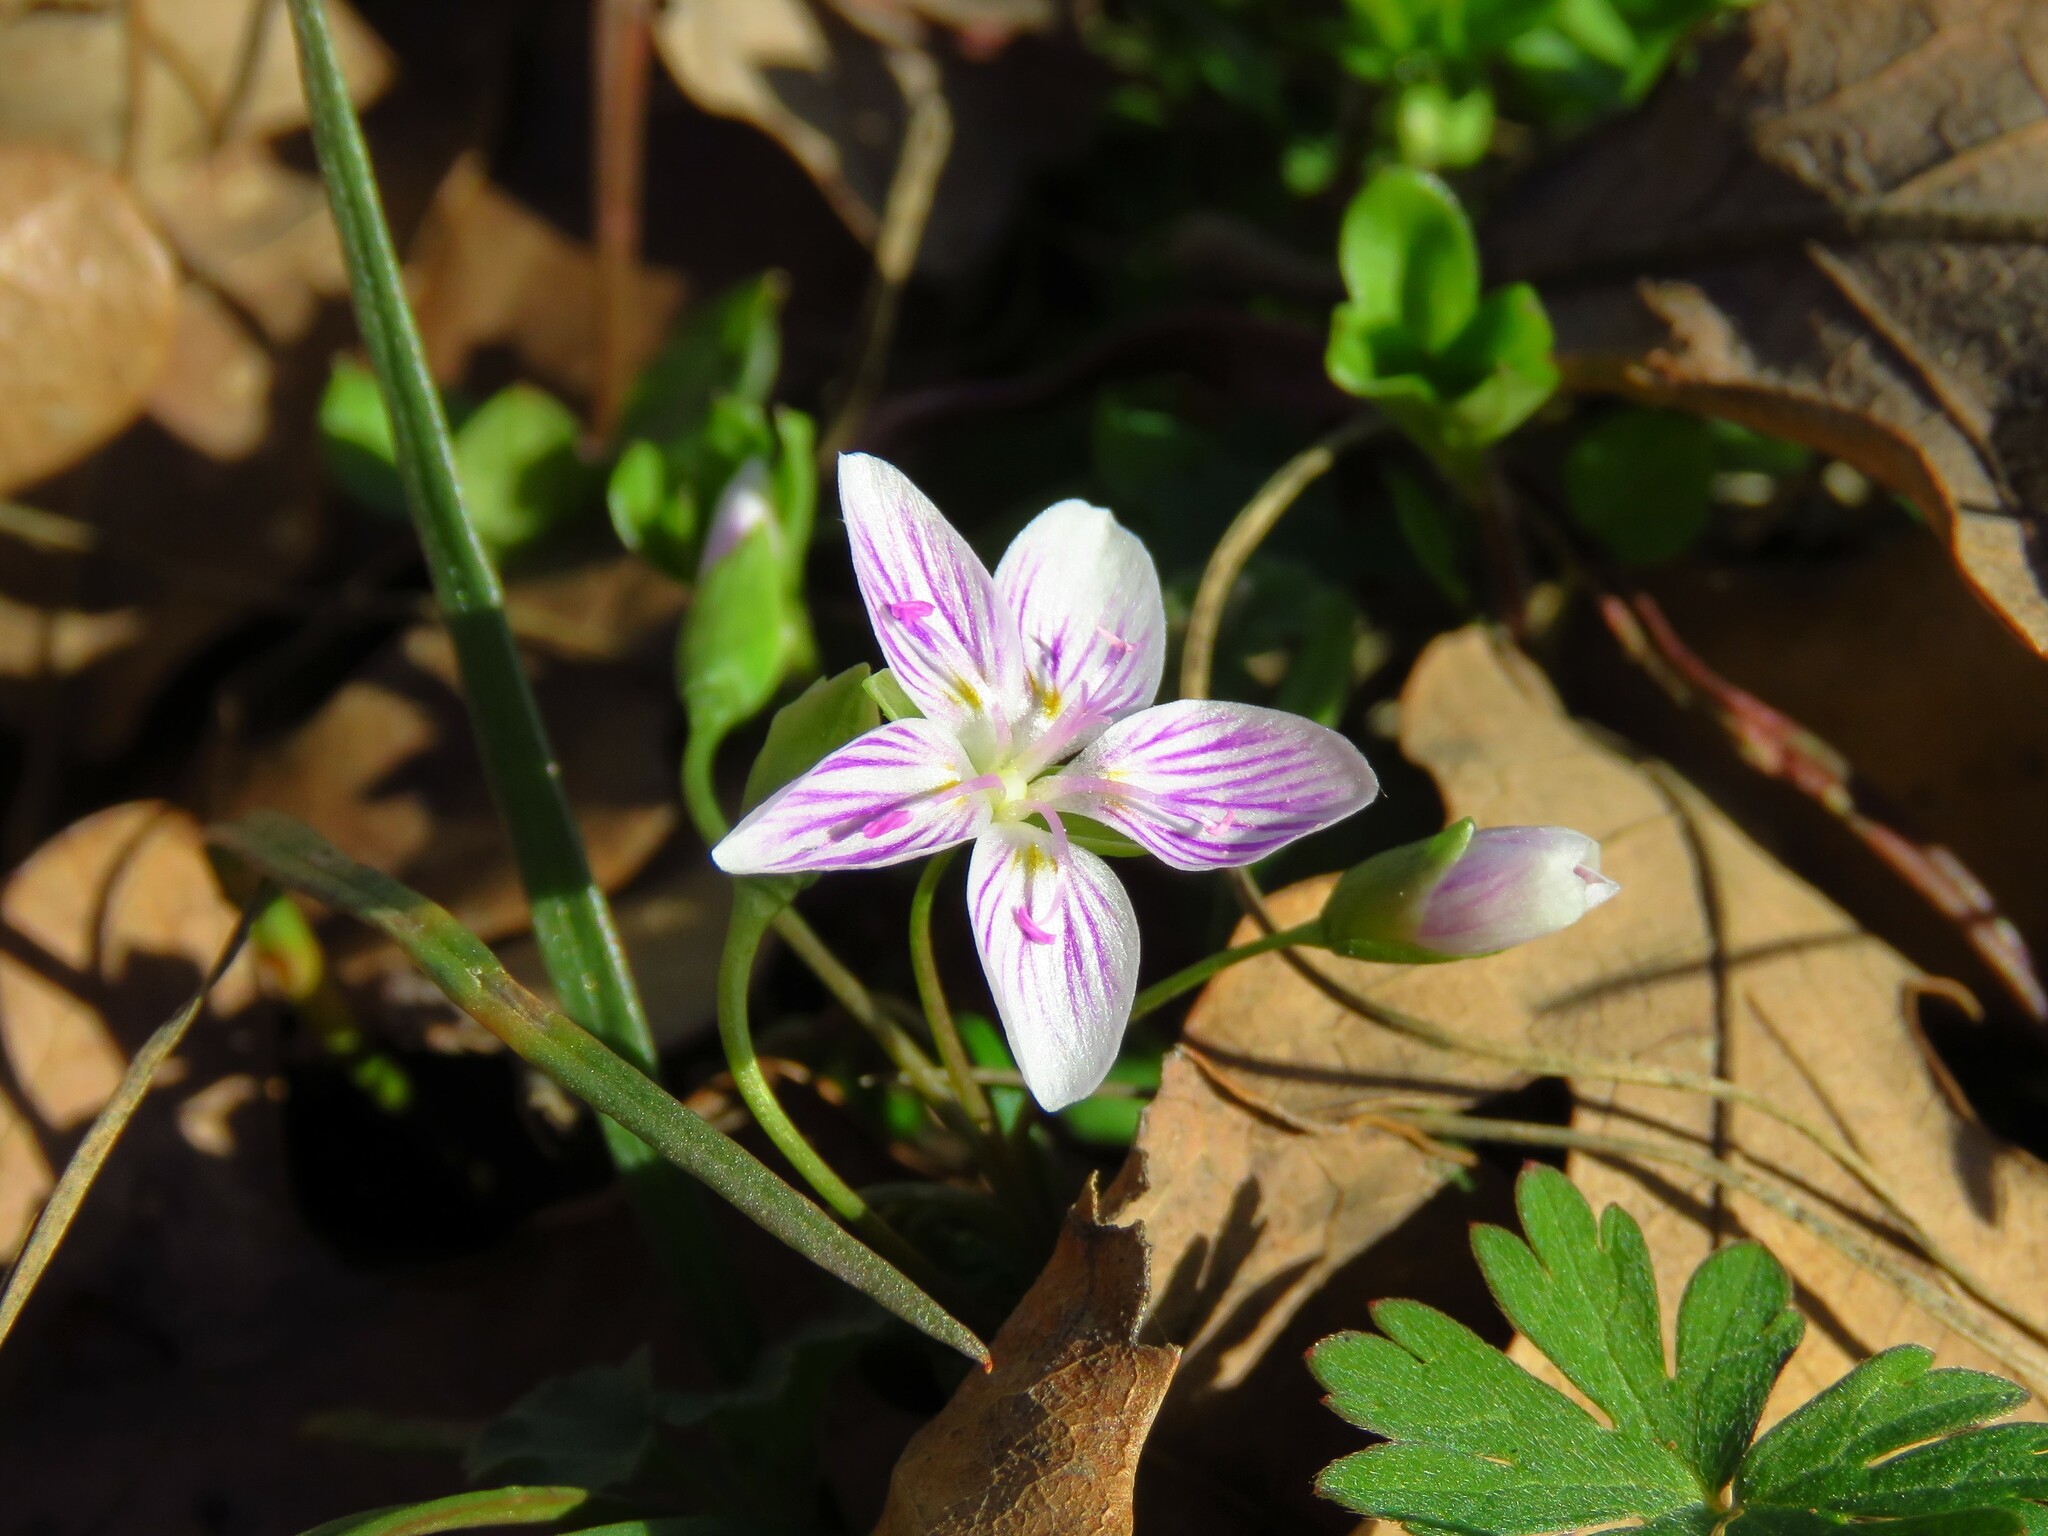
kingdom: Plantae
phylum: Tracheophyta
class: Magnoliopsida
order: Caryophyllales
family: Montiaceae
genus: Claytonia
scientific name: Claytonia virginica
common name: Virginia springbeauty
